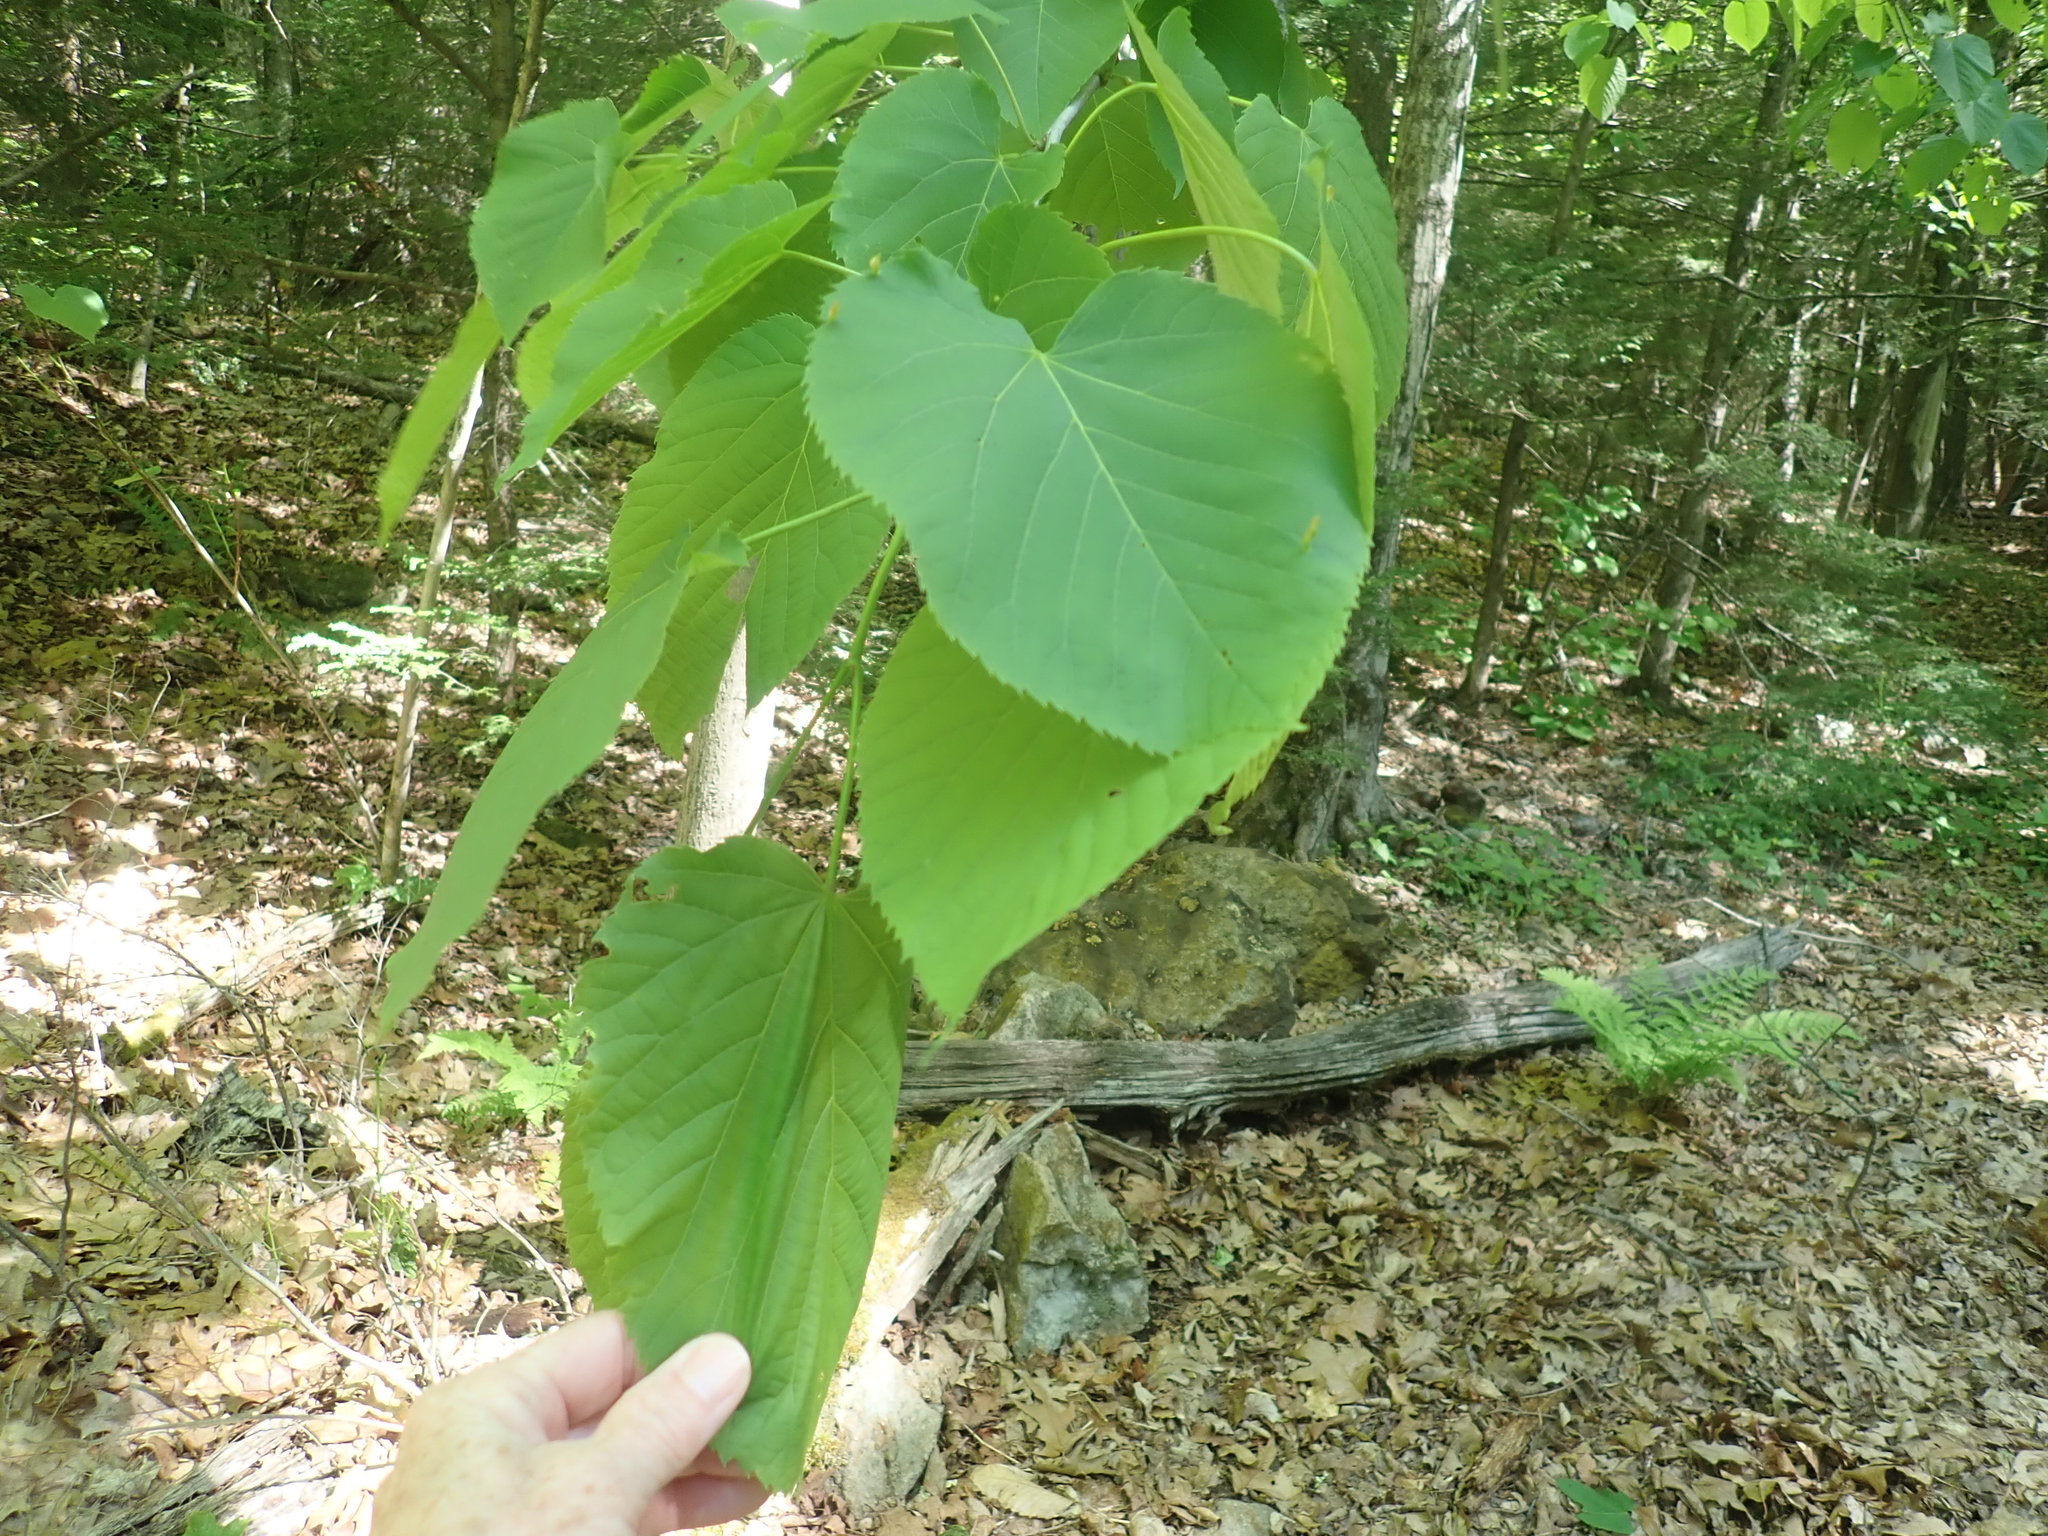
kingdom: Plantae
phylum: Tracheophyta
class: Magnoliopsida
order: Malvales
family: Malvaceae
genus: Tilia
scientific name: Tilia americana
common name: Basswood
